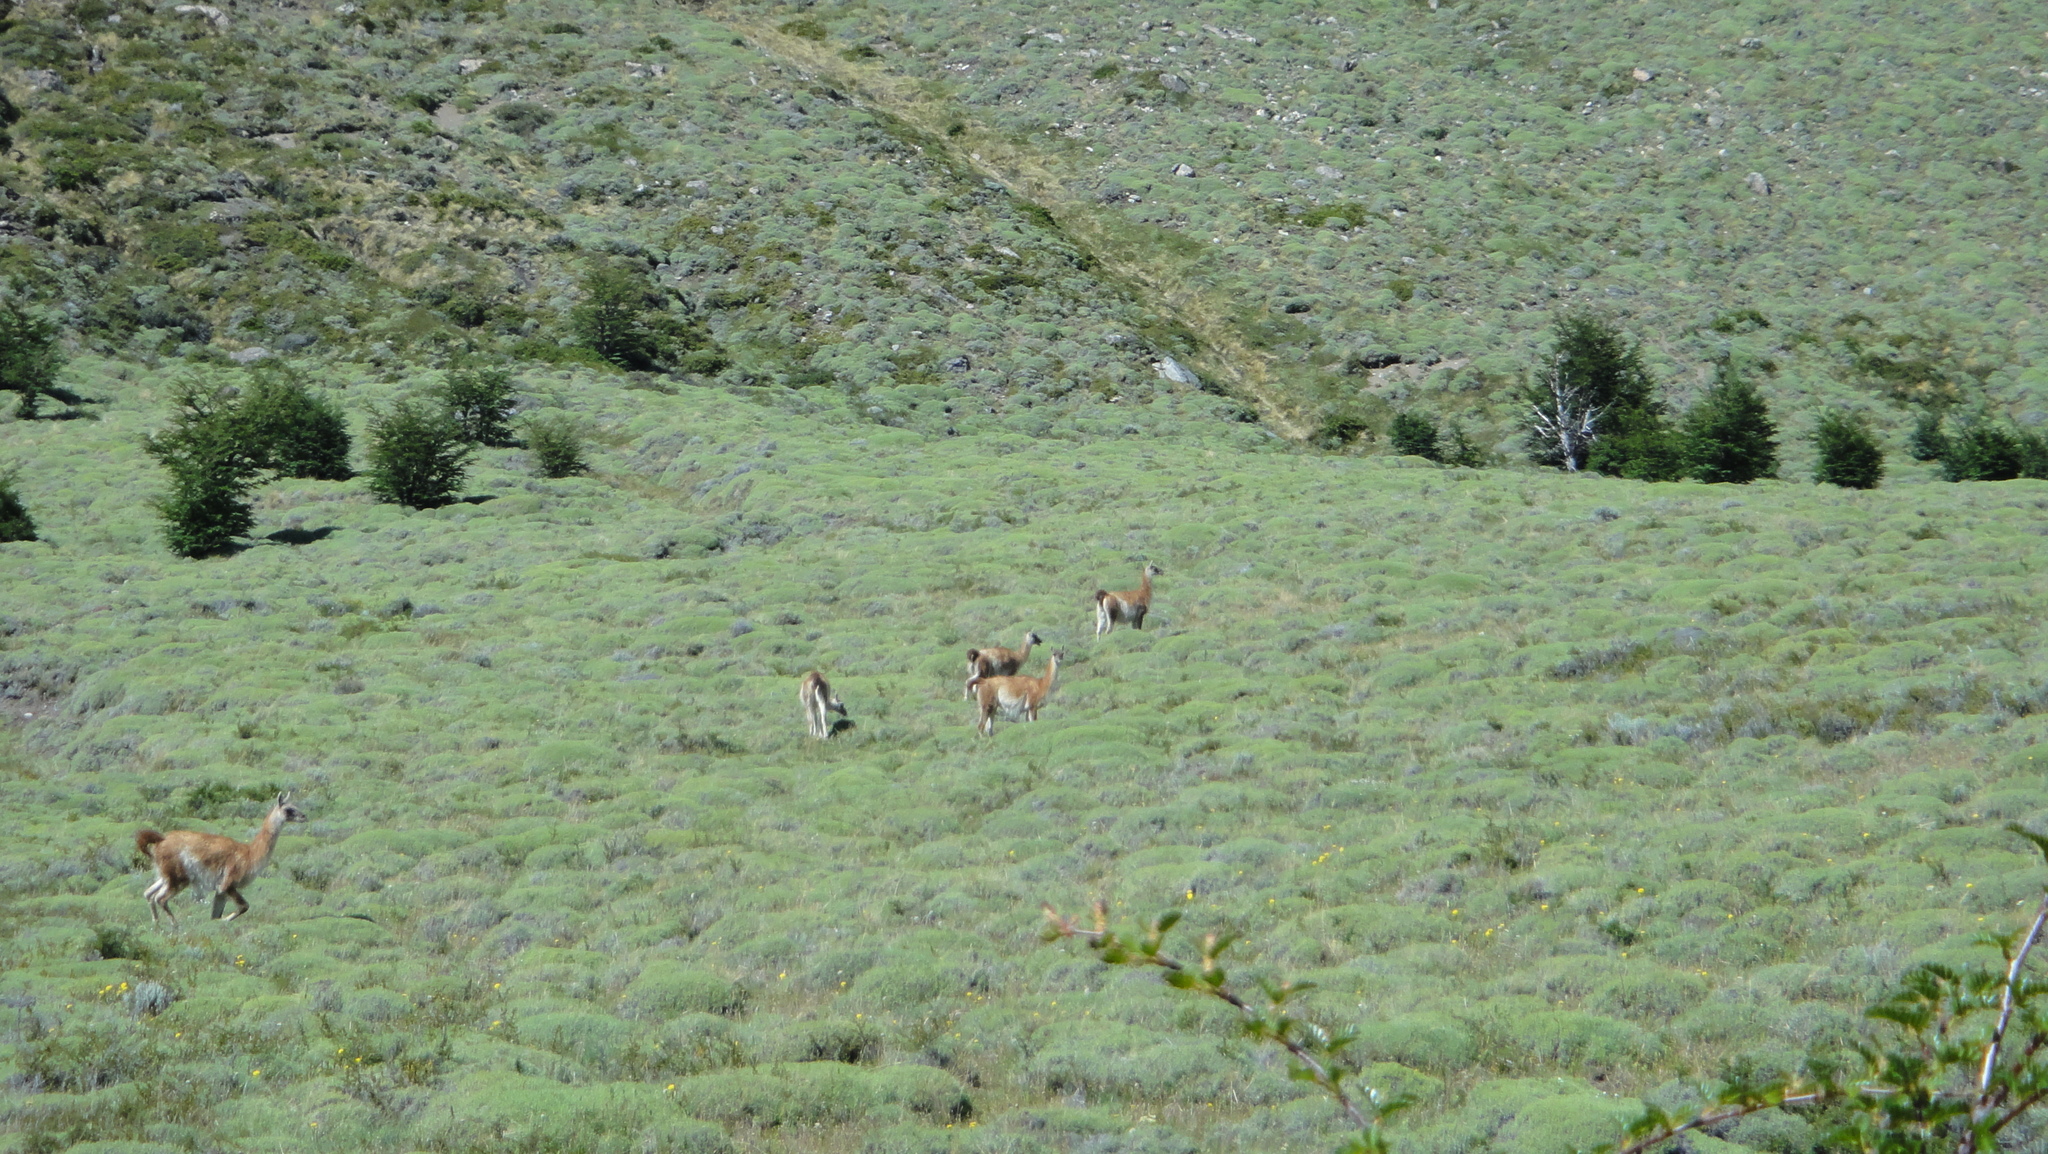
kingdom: Animalia
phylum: Chordata
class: Mammalia
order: Artiodactyla
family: Camelidae
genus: Lama
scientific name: Lama glama
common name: Llama
